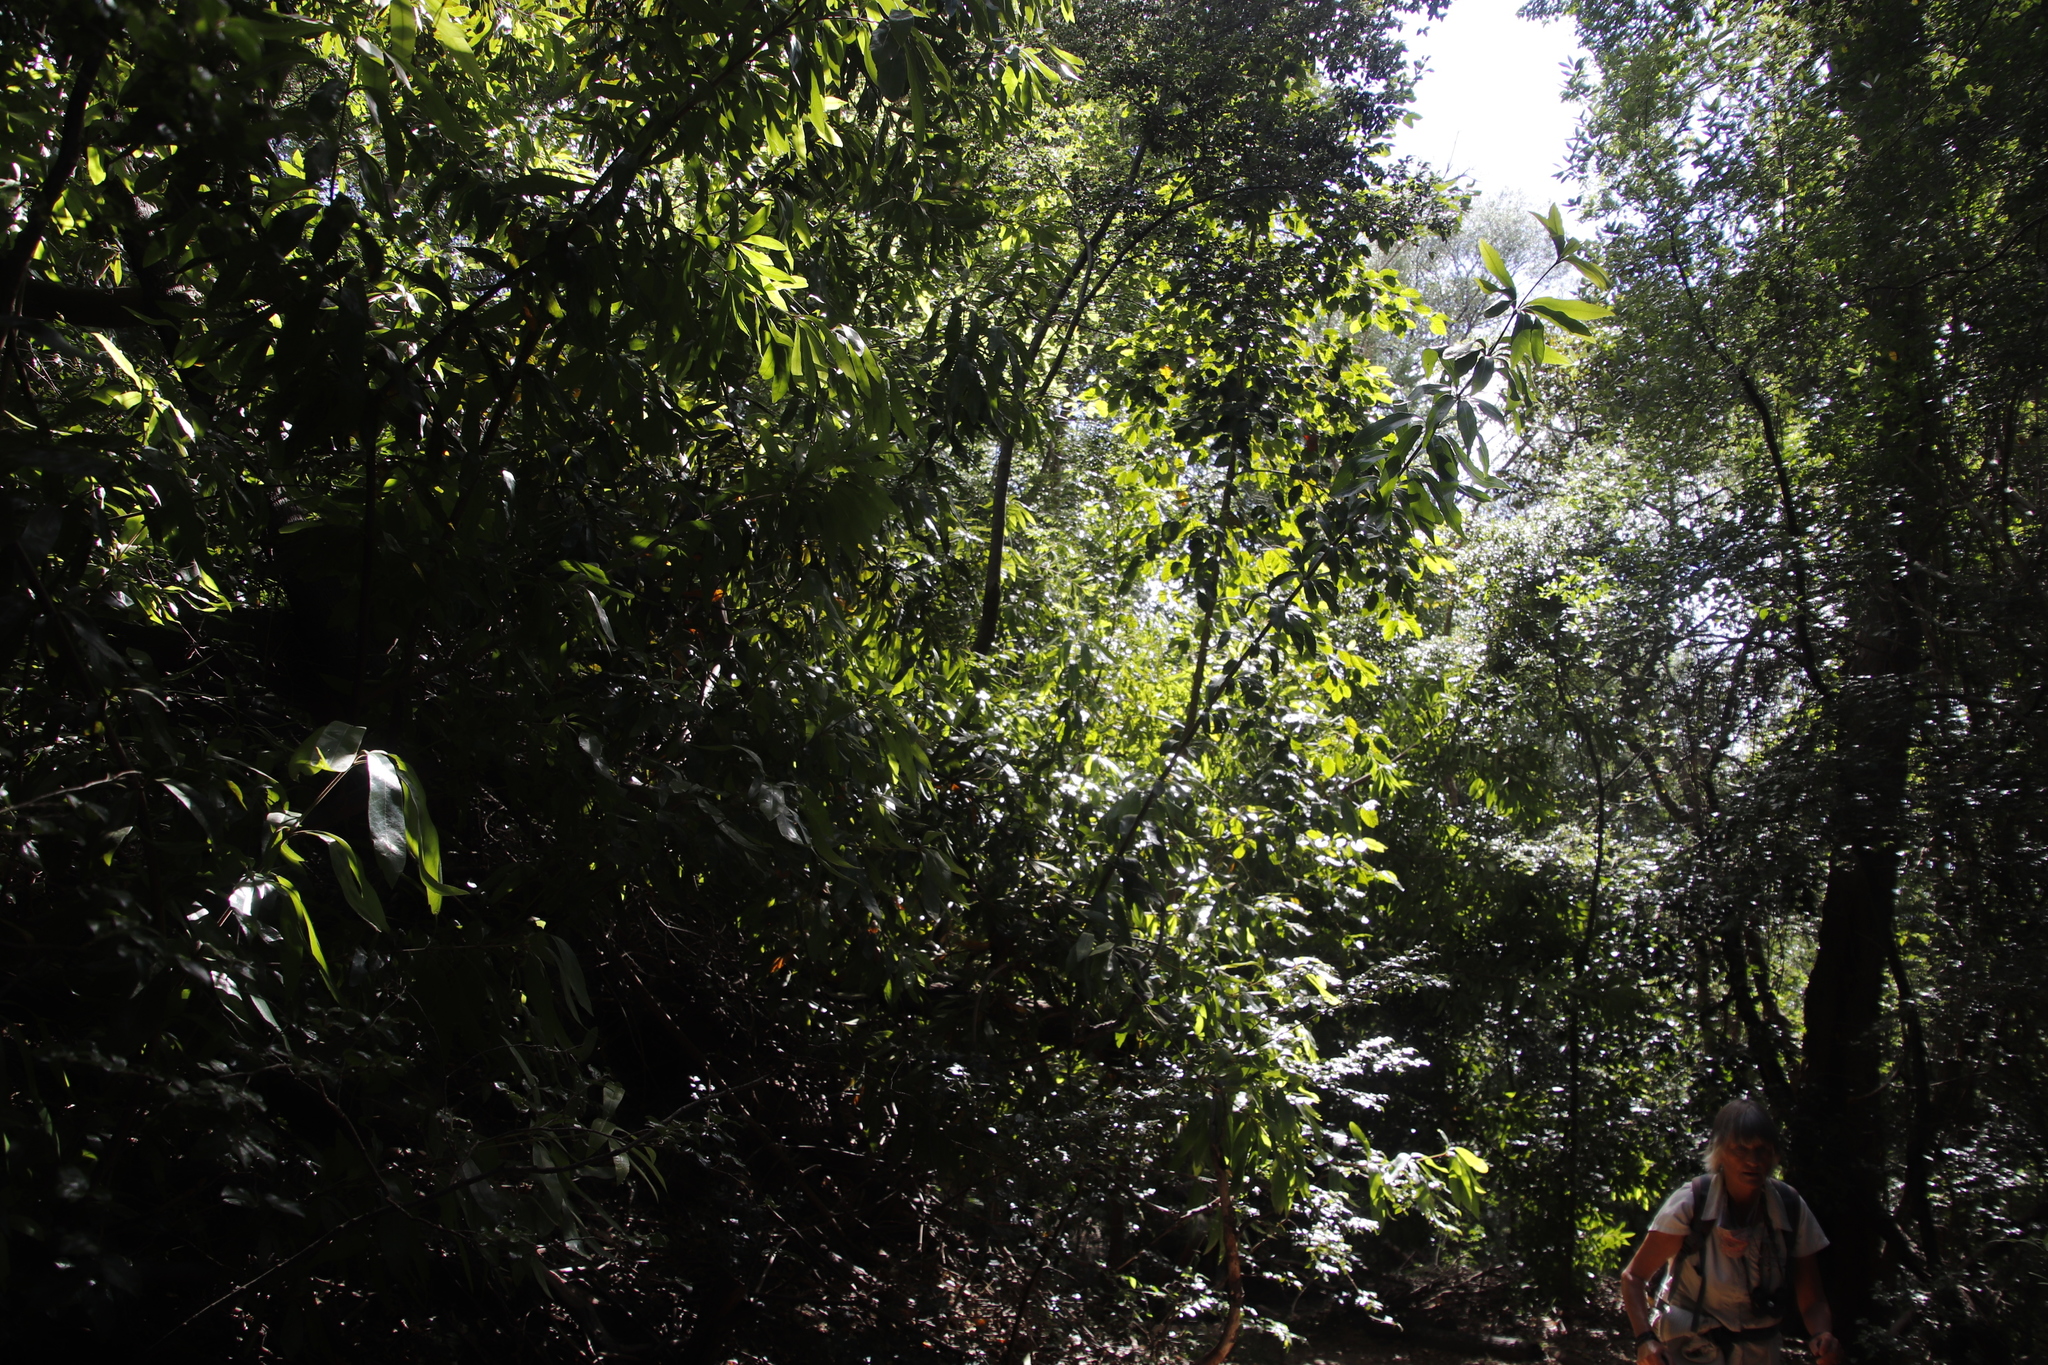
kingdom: Plantae
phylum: Tracheophyta
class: Magnoliopsida
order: Proteales
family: Proteaceae
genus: Brabejum
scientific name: Brabejum stellatifolium
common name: Wild almond
